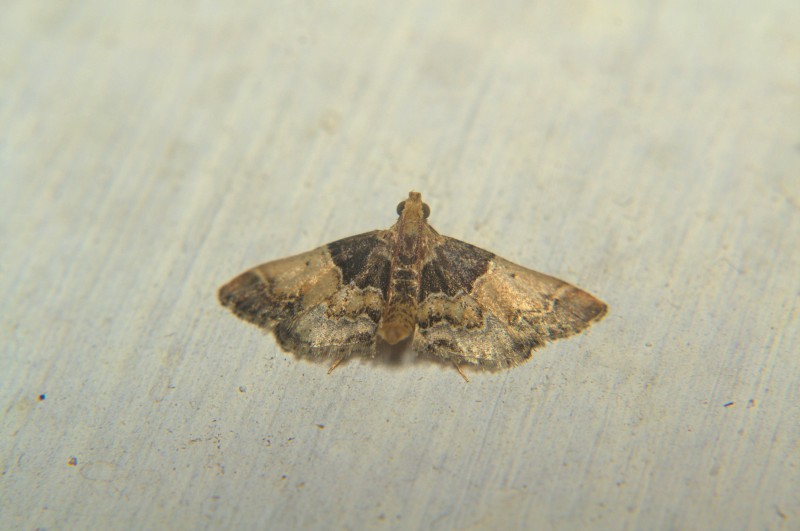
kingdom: Animalia
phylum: Arthropoda
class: Insecta
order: Lepidoptera
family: Pyralidae
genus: Pyralis
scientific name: Pyralis farinalis
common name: Meal moth
